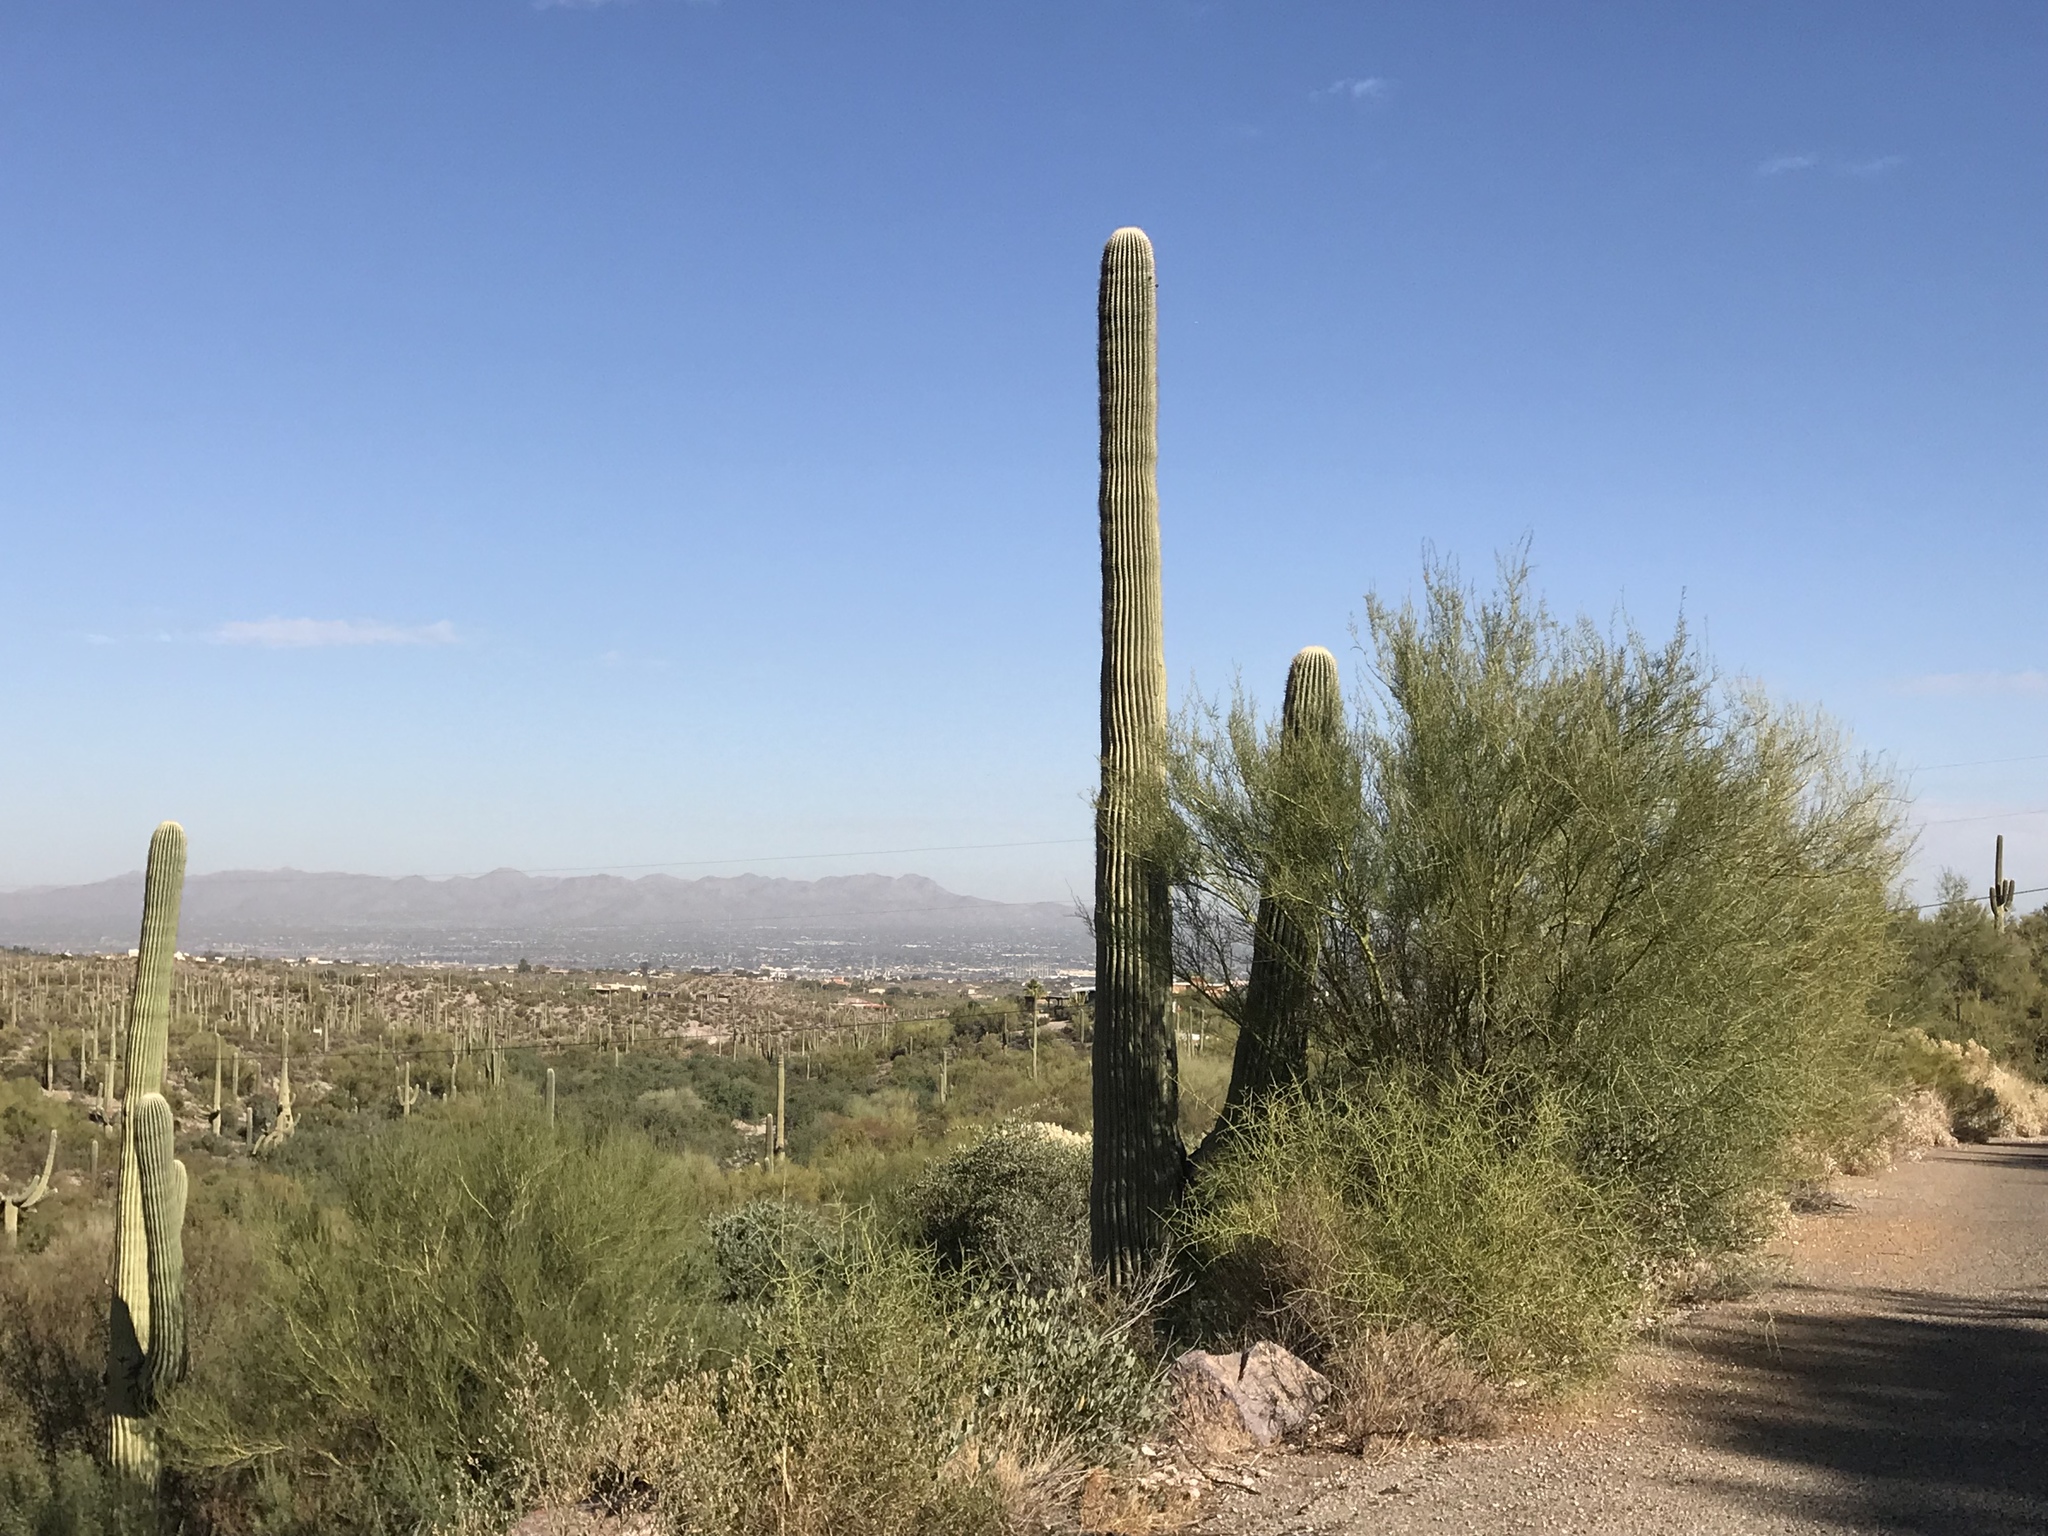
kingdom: Plantae
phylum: Tracheophyta
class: Magnoliopsida
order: Caryophyllales
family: Cactaceae
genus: Carnegiea
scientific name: Carnegiea gigantea
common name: Saguaro
